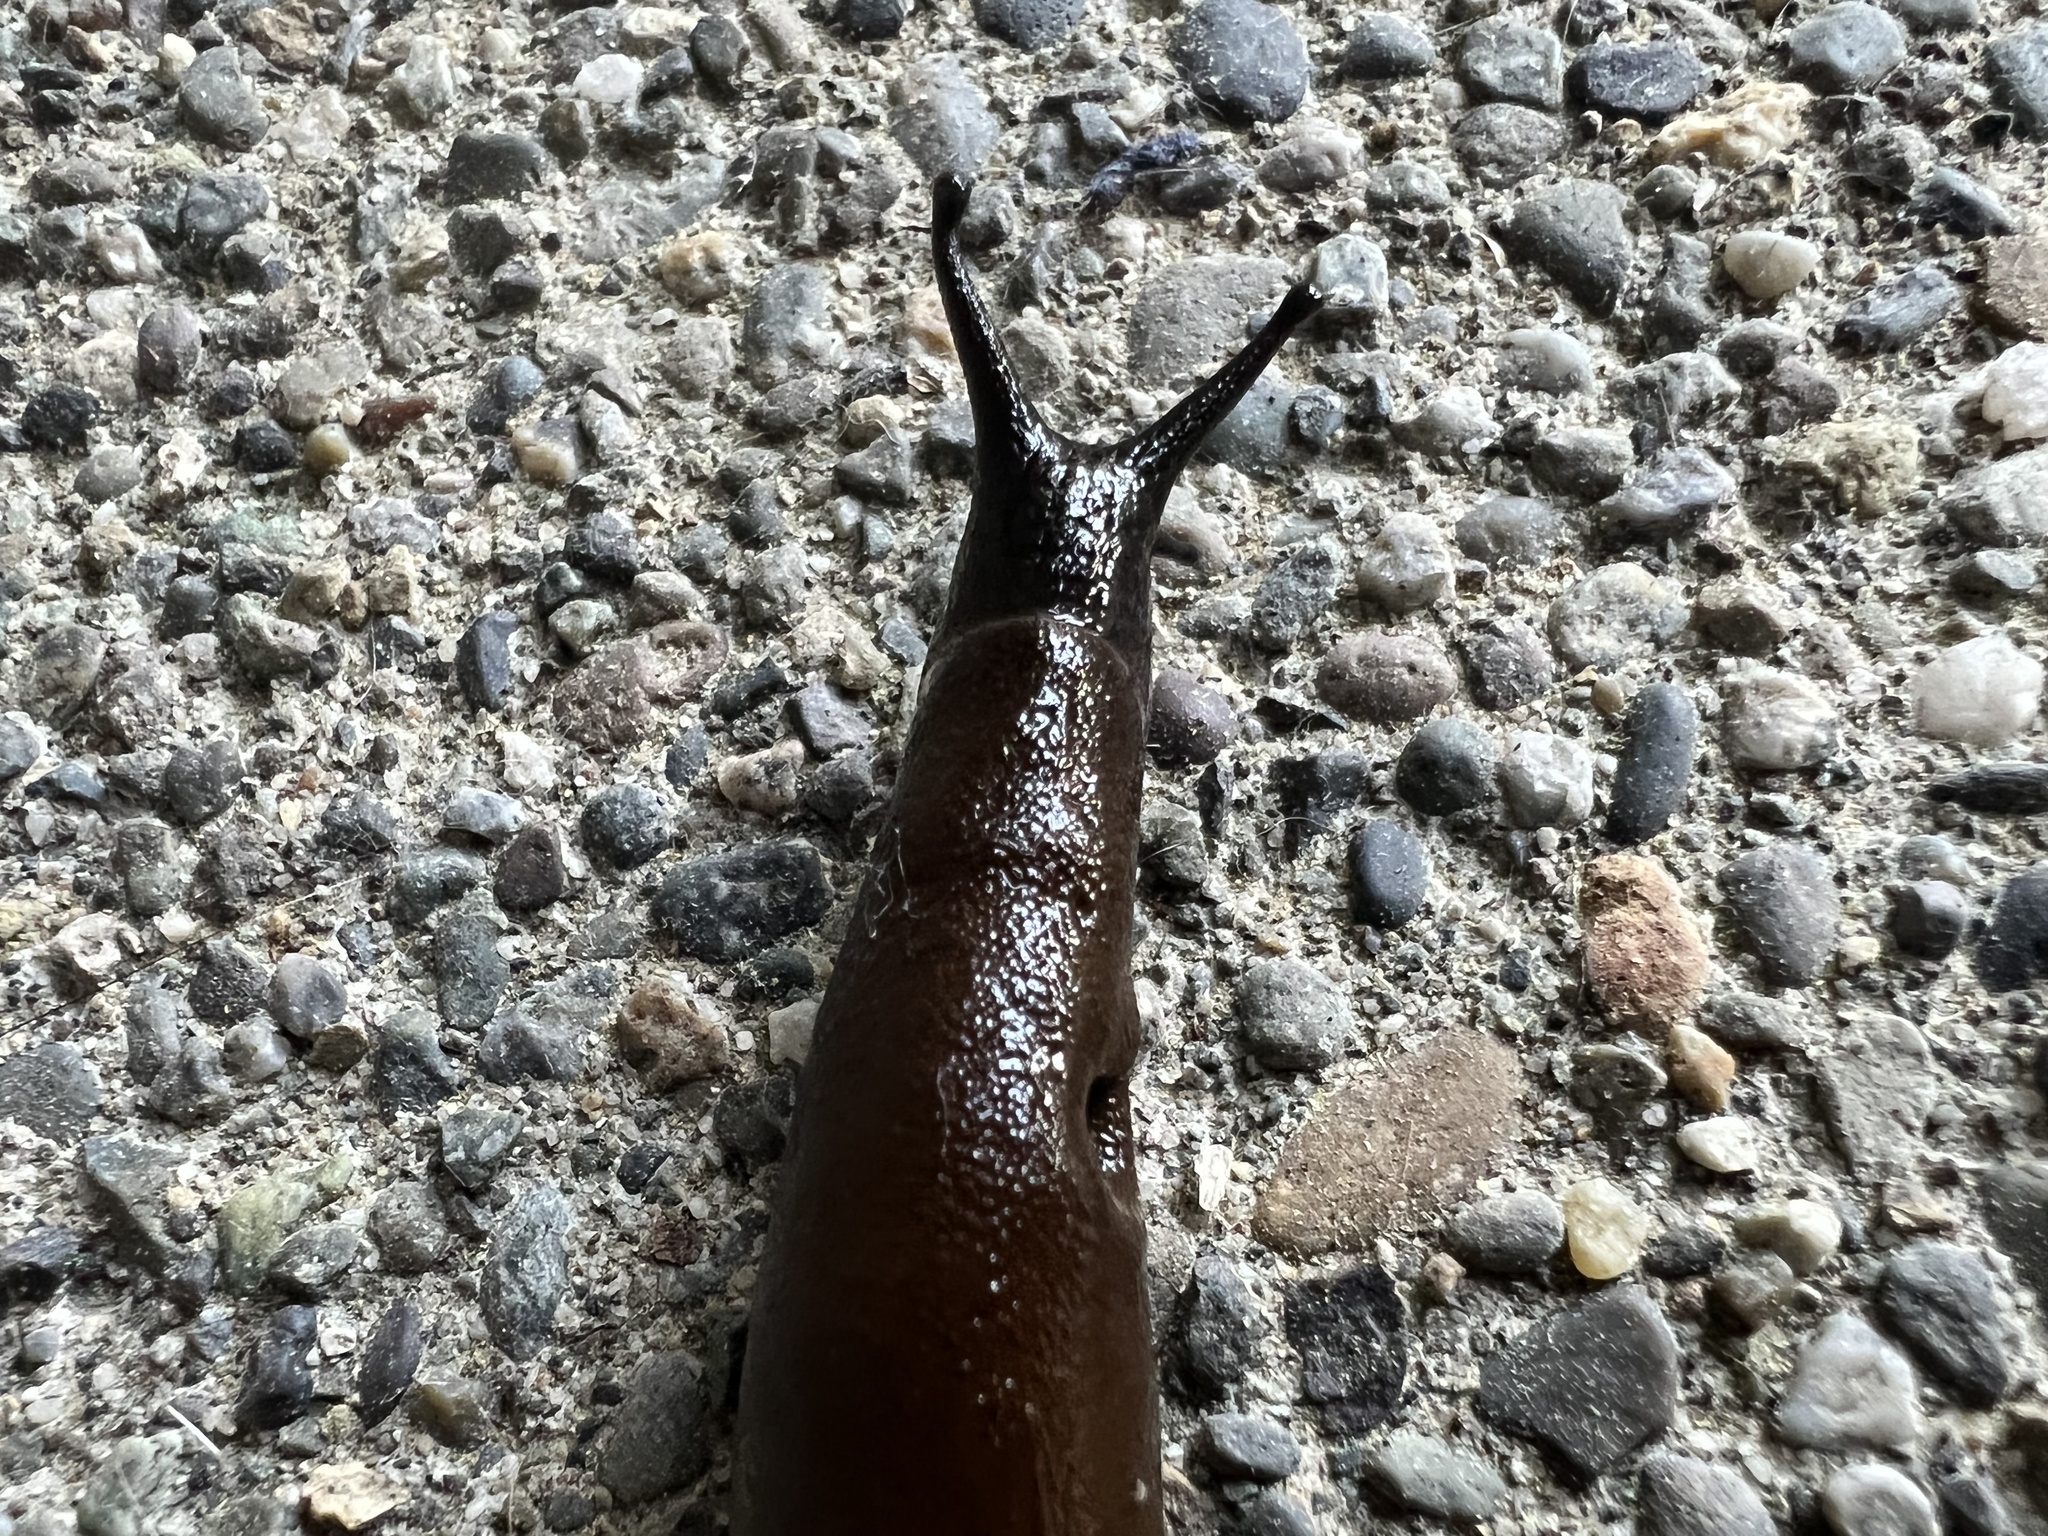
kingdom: Animalia
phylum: Mollusca
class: Gastropoda
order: Stylommatophora
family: Arionidae
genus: Arion
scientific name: Arion
